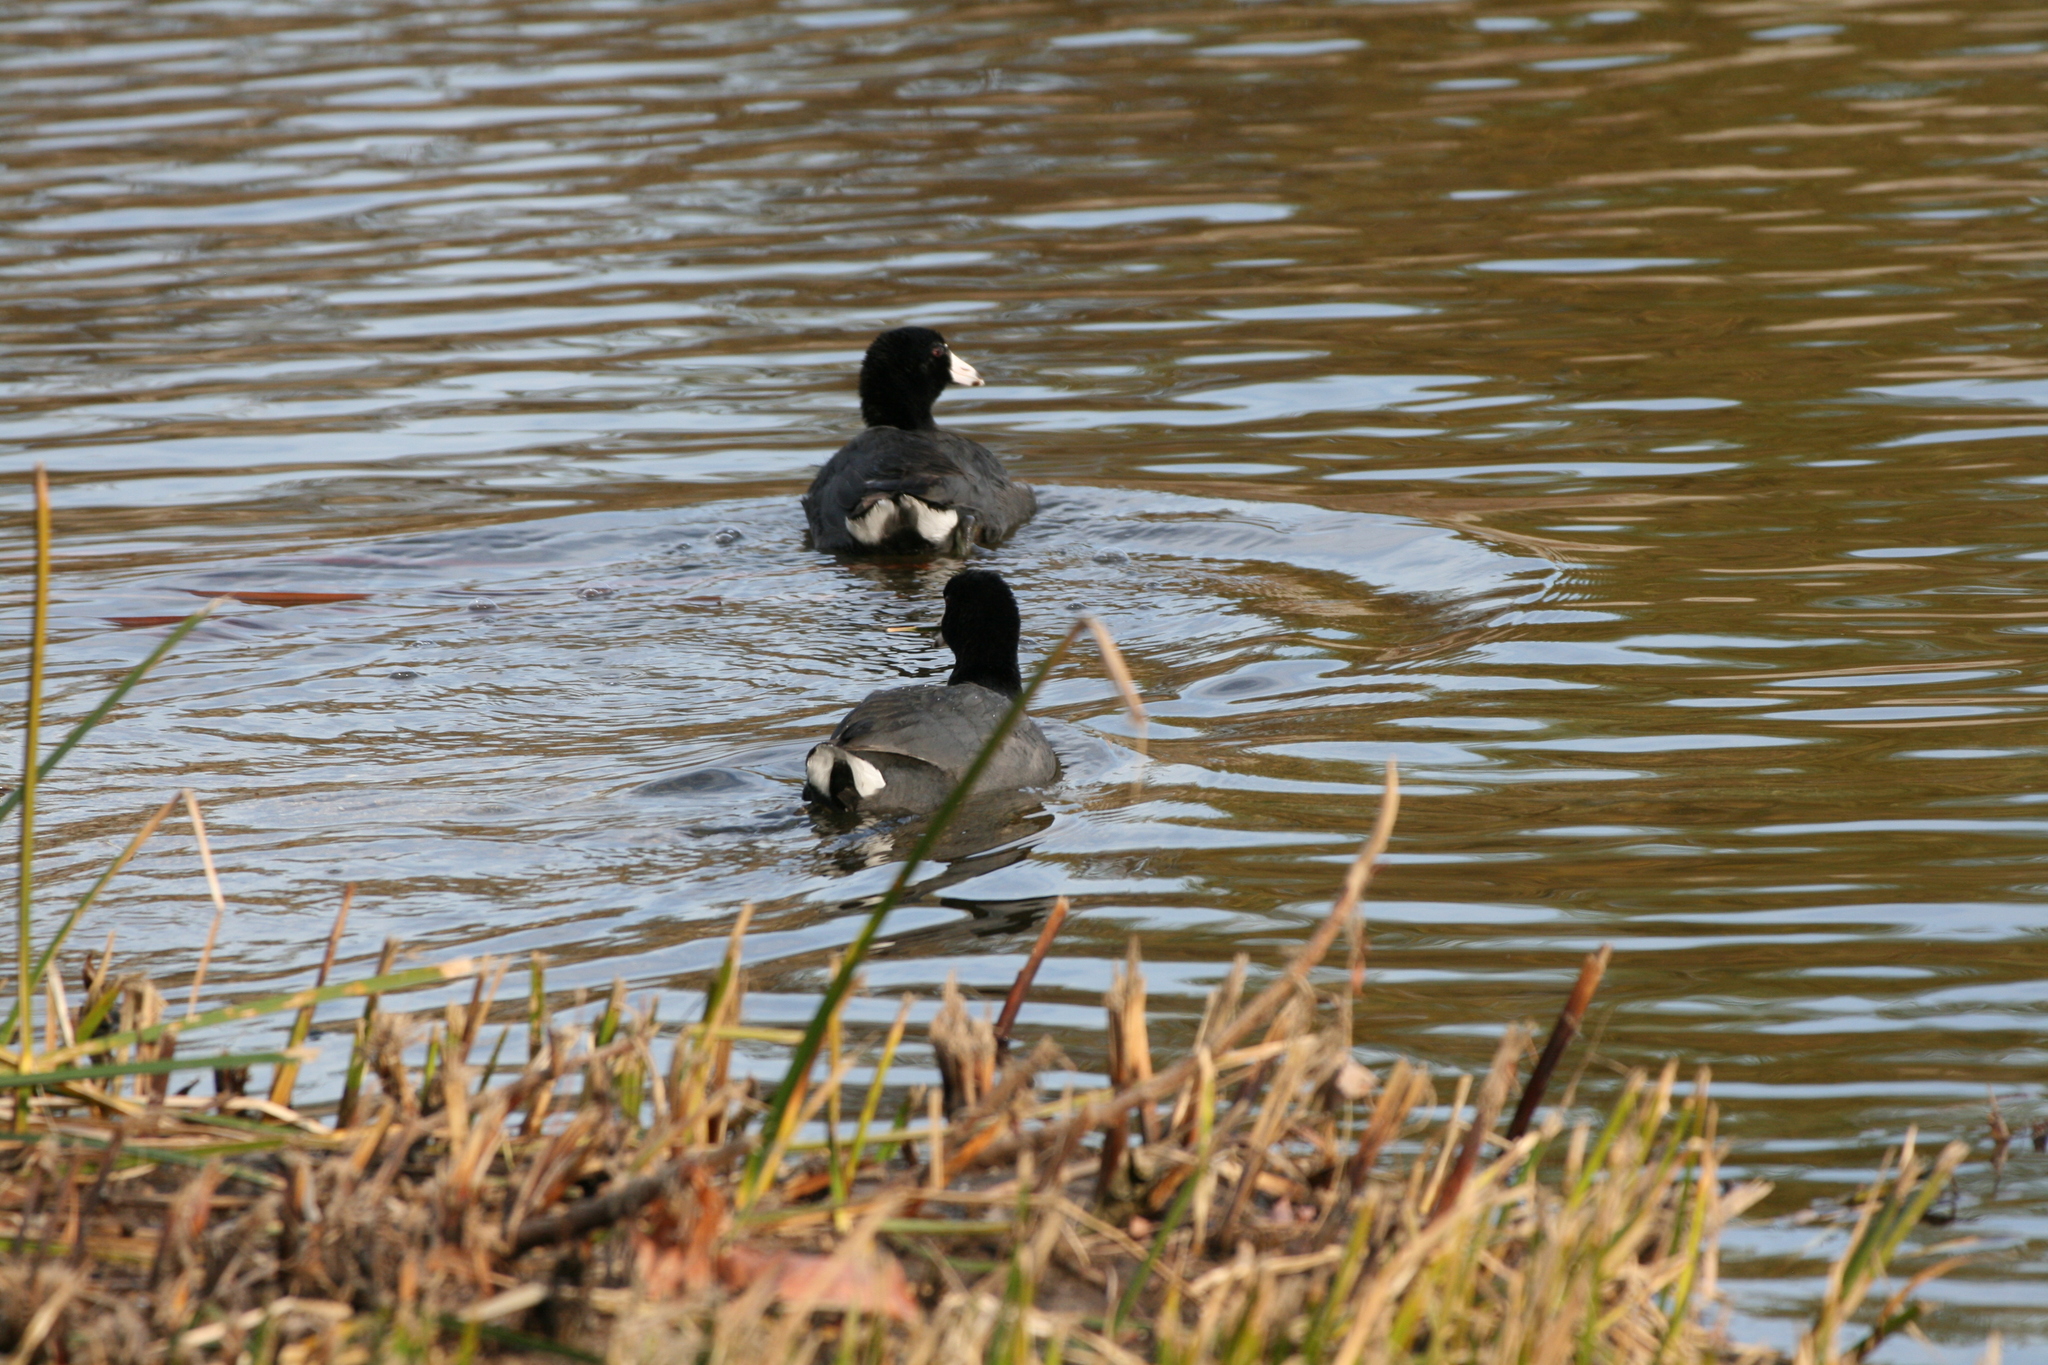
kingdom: Animalia
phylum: Chordata
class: Aves
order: Gruiformes
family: Rallidae
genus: Fulica
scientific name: Fulica americana
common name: American coot
